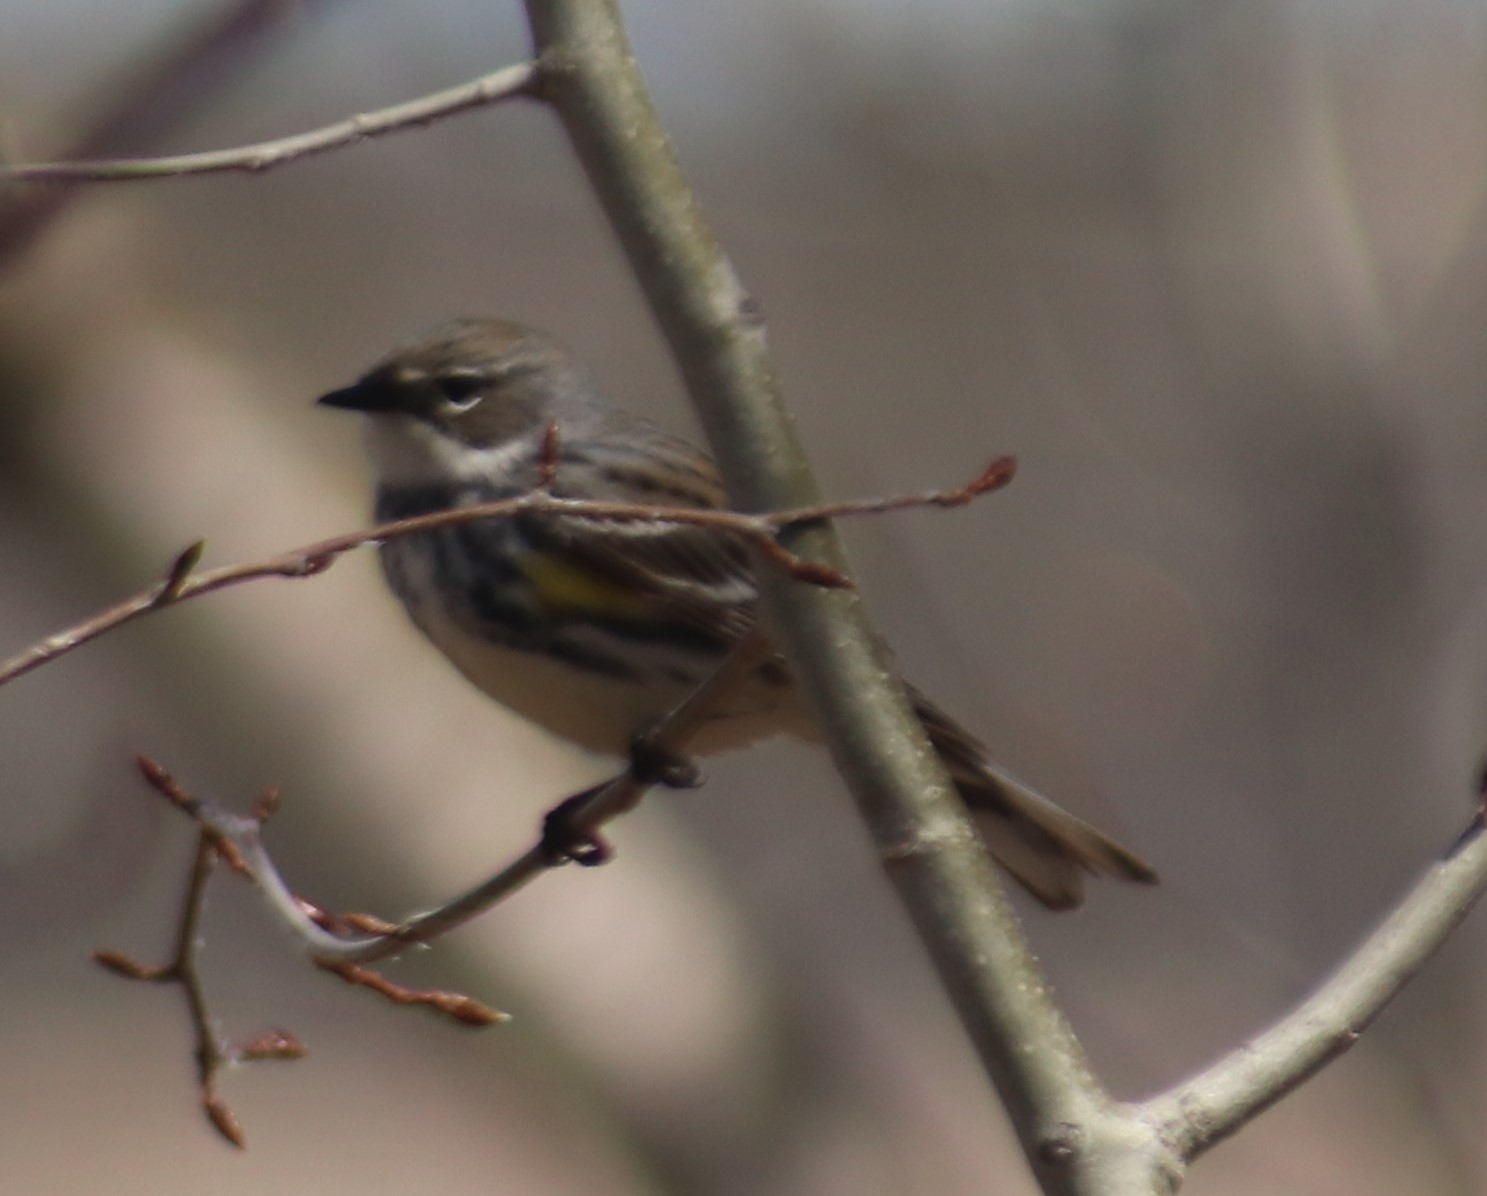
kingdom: Animalia
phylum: Chordata
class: Aves
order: Passeriformes
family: Parulidae
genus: Setophaga
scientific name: Setophaga coronata
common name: Myrtle warbler
